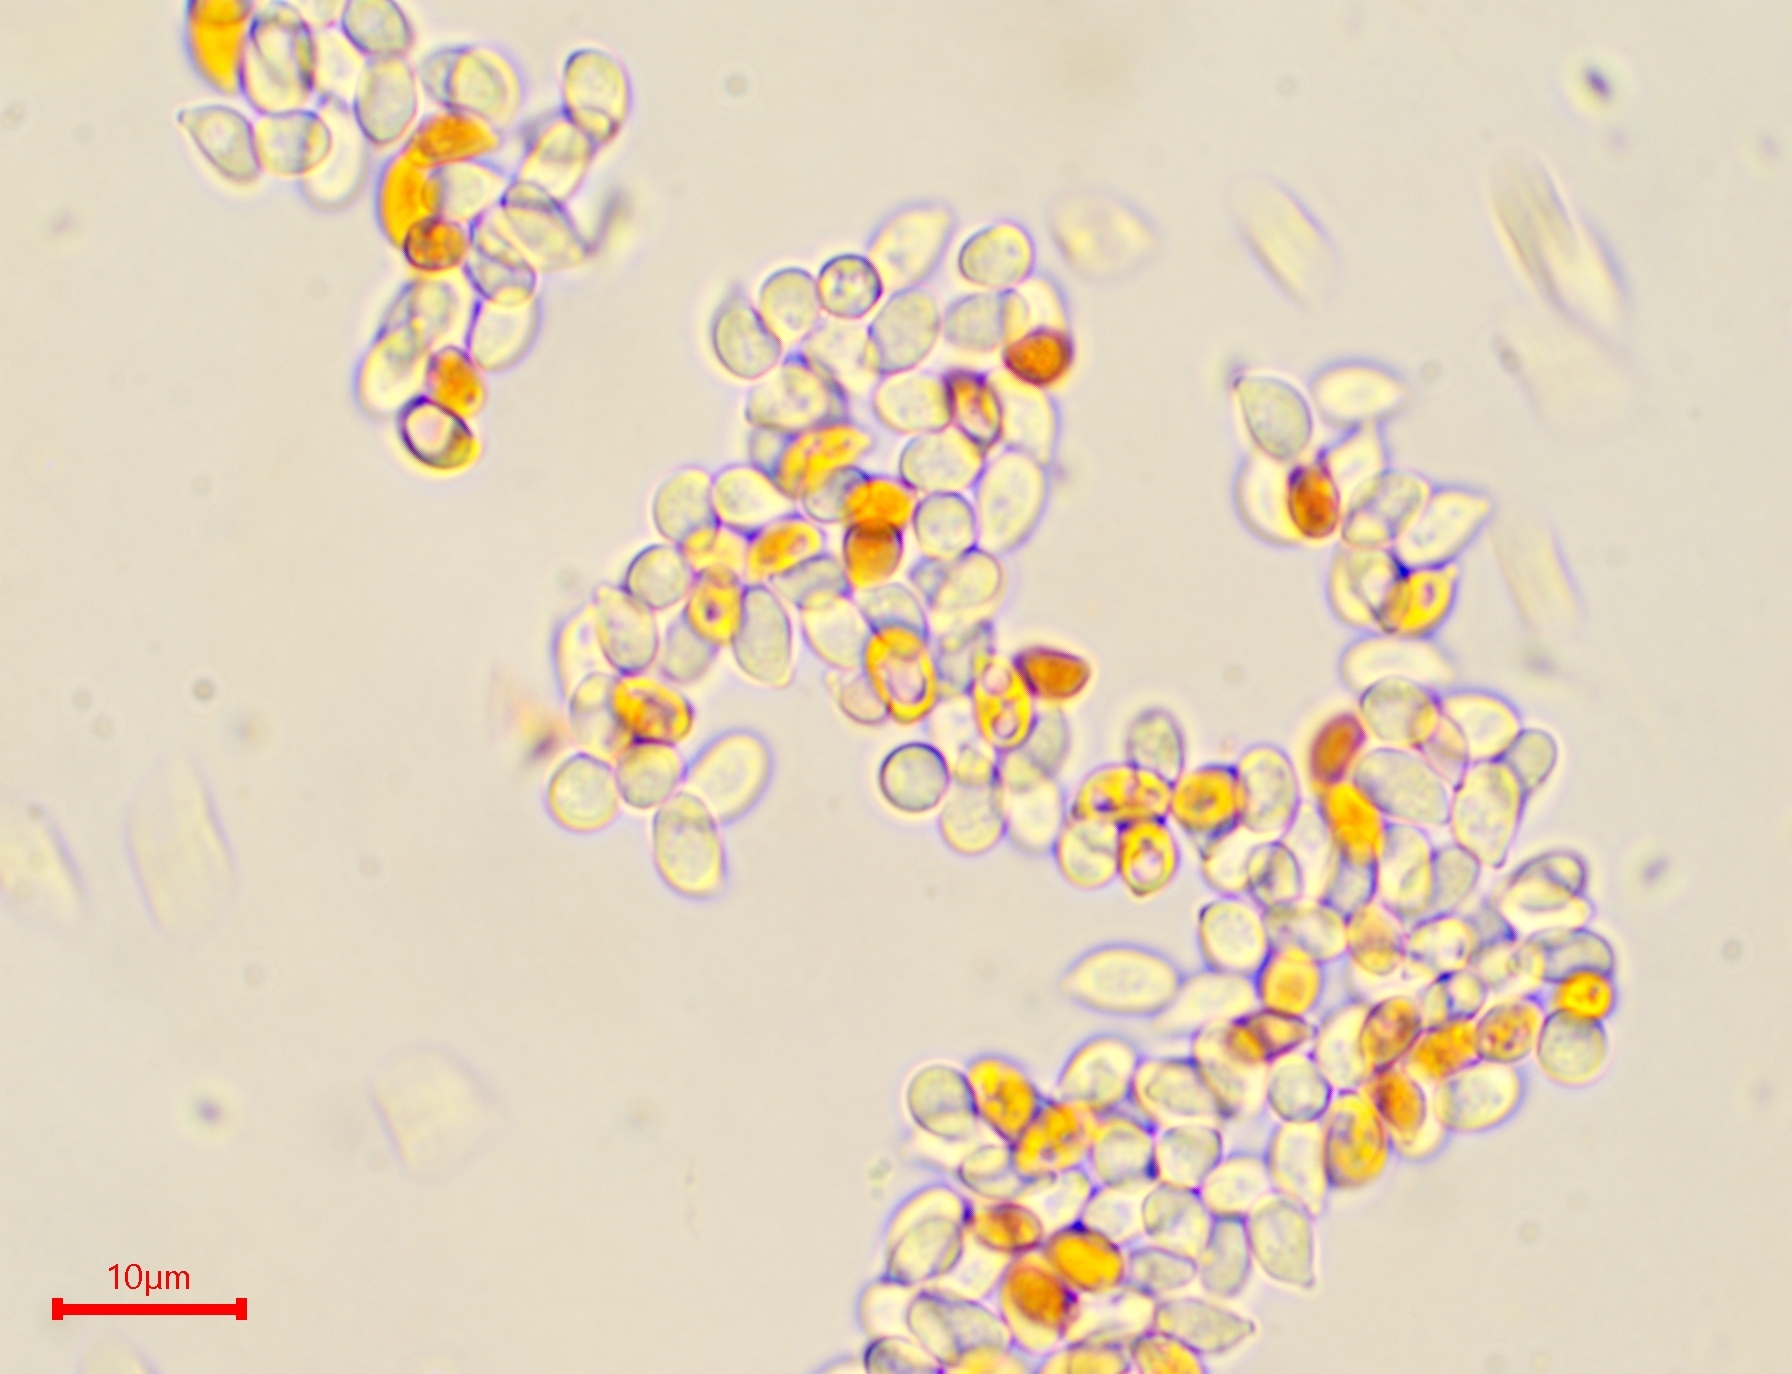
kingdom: Fungi
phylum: Basidiomycota
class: Agaricomycetes
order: Agaricales
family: Physalacriaceae
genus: Strobilurus
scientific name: Strobilurus esculentus
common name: Sprucecone cap
